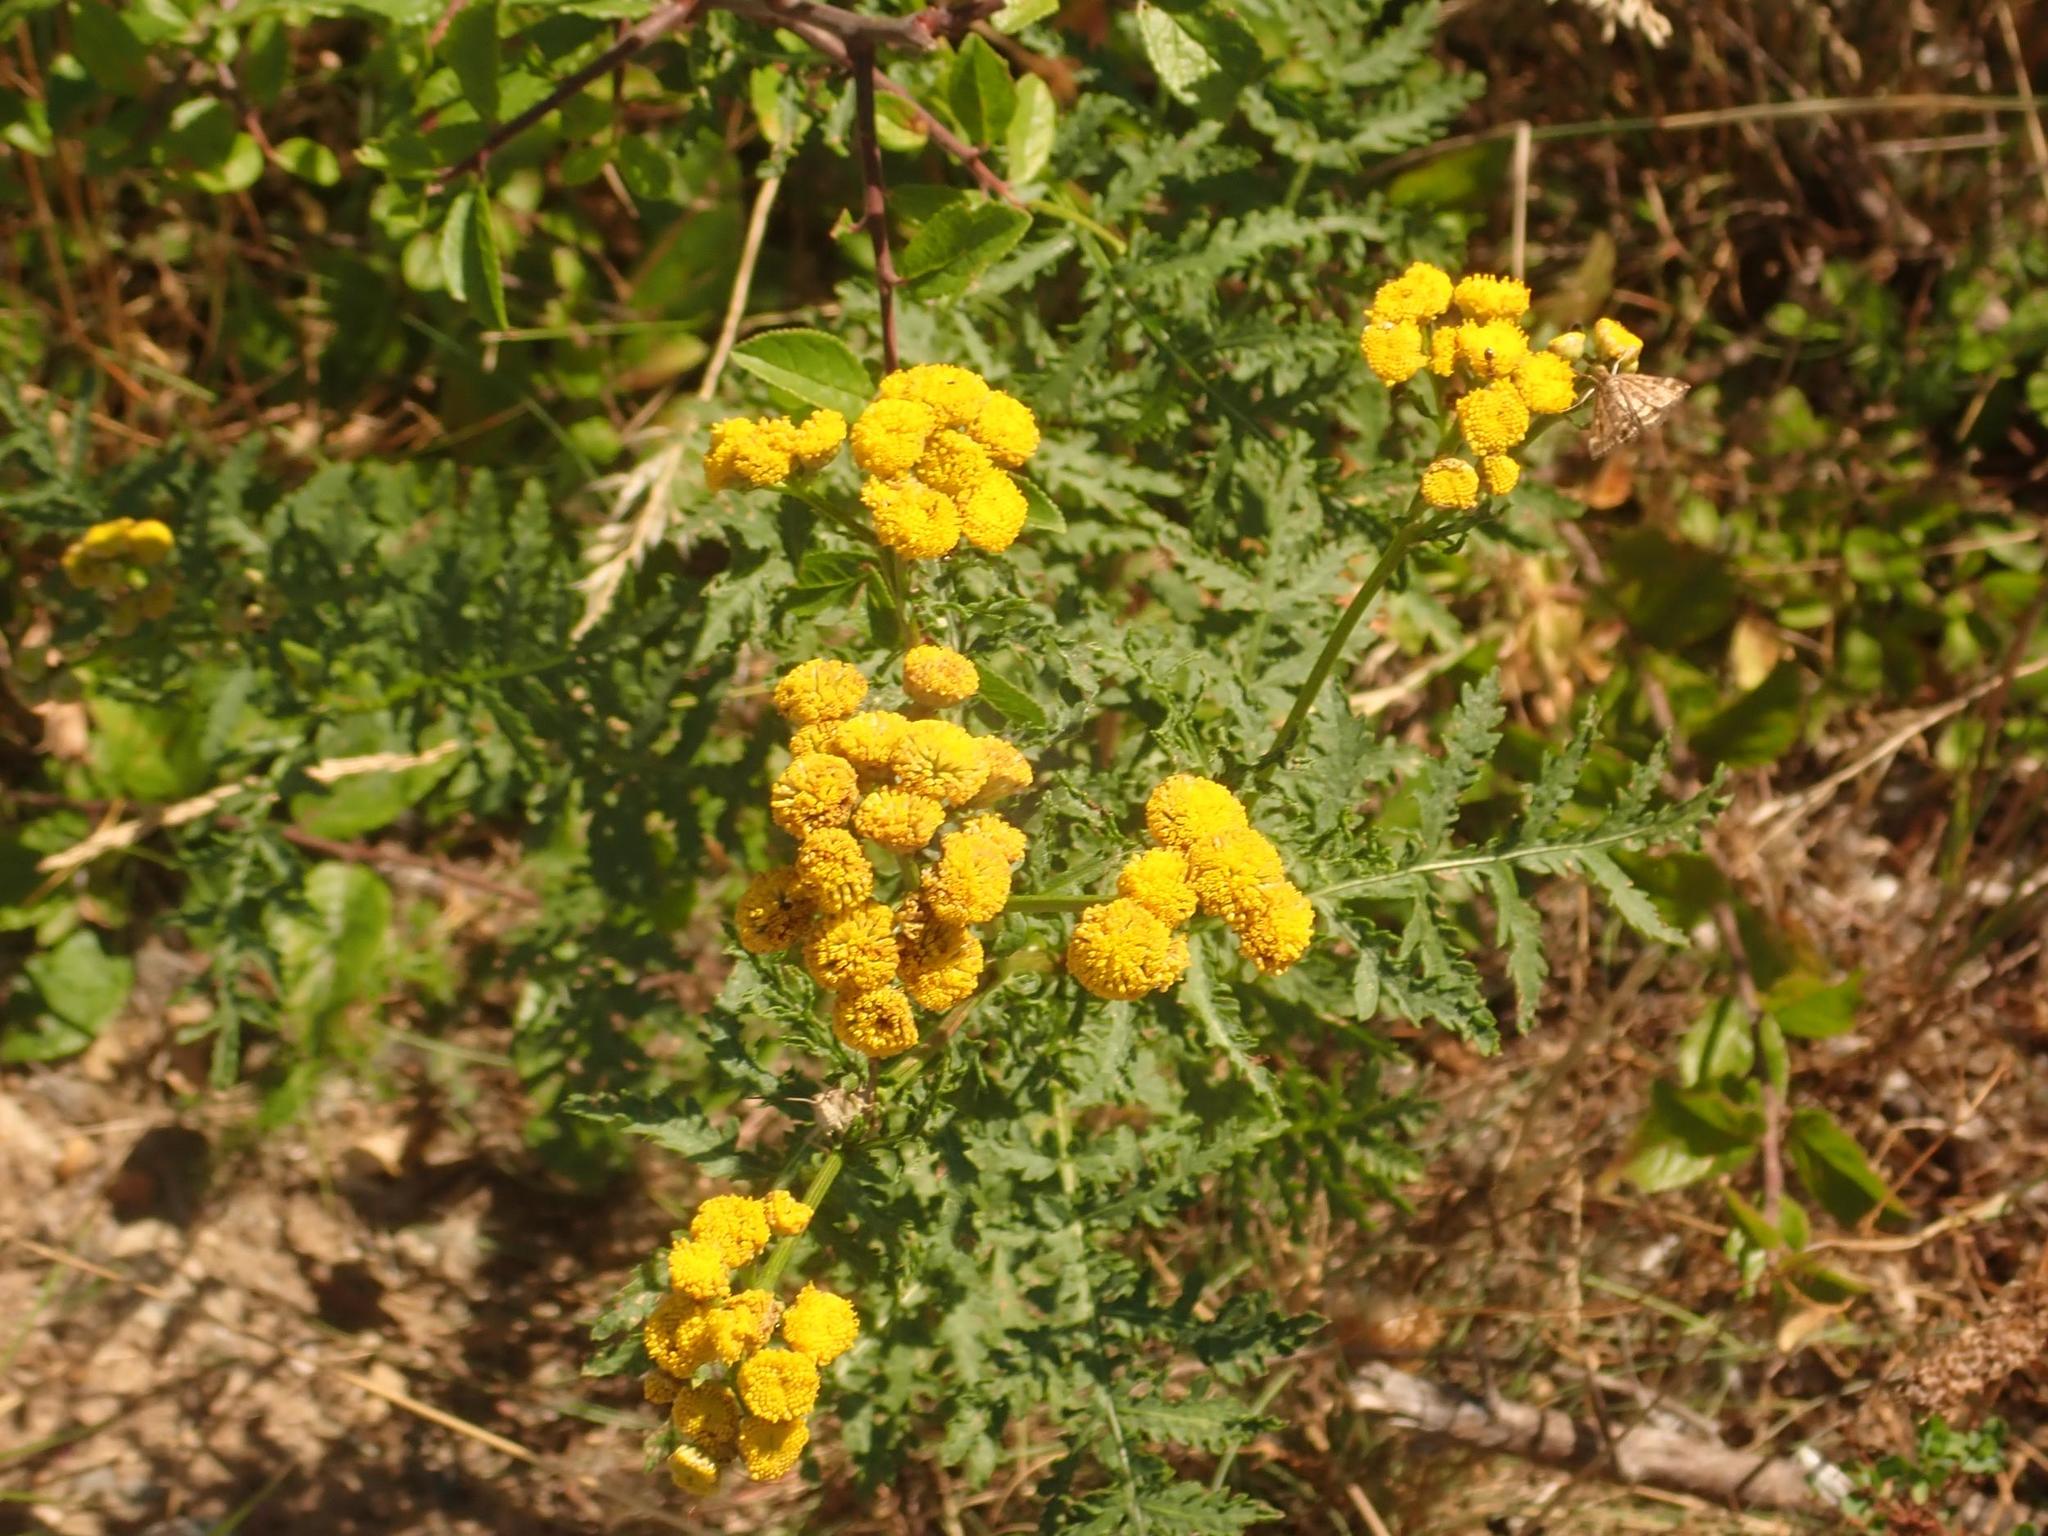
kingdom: Plantae
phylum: Tracheophyta
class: Magnoliopsida
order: Asterales
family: Asteraceae
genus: Tanacetum
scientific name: Tanacetum vulgare
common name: Common tansy
